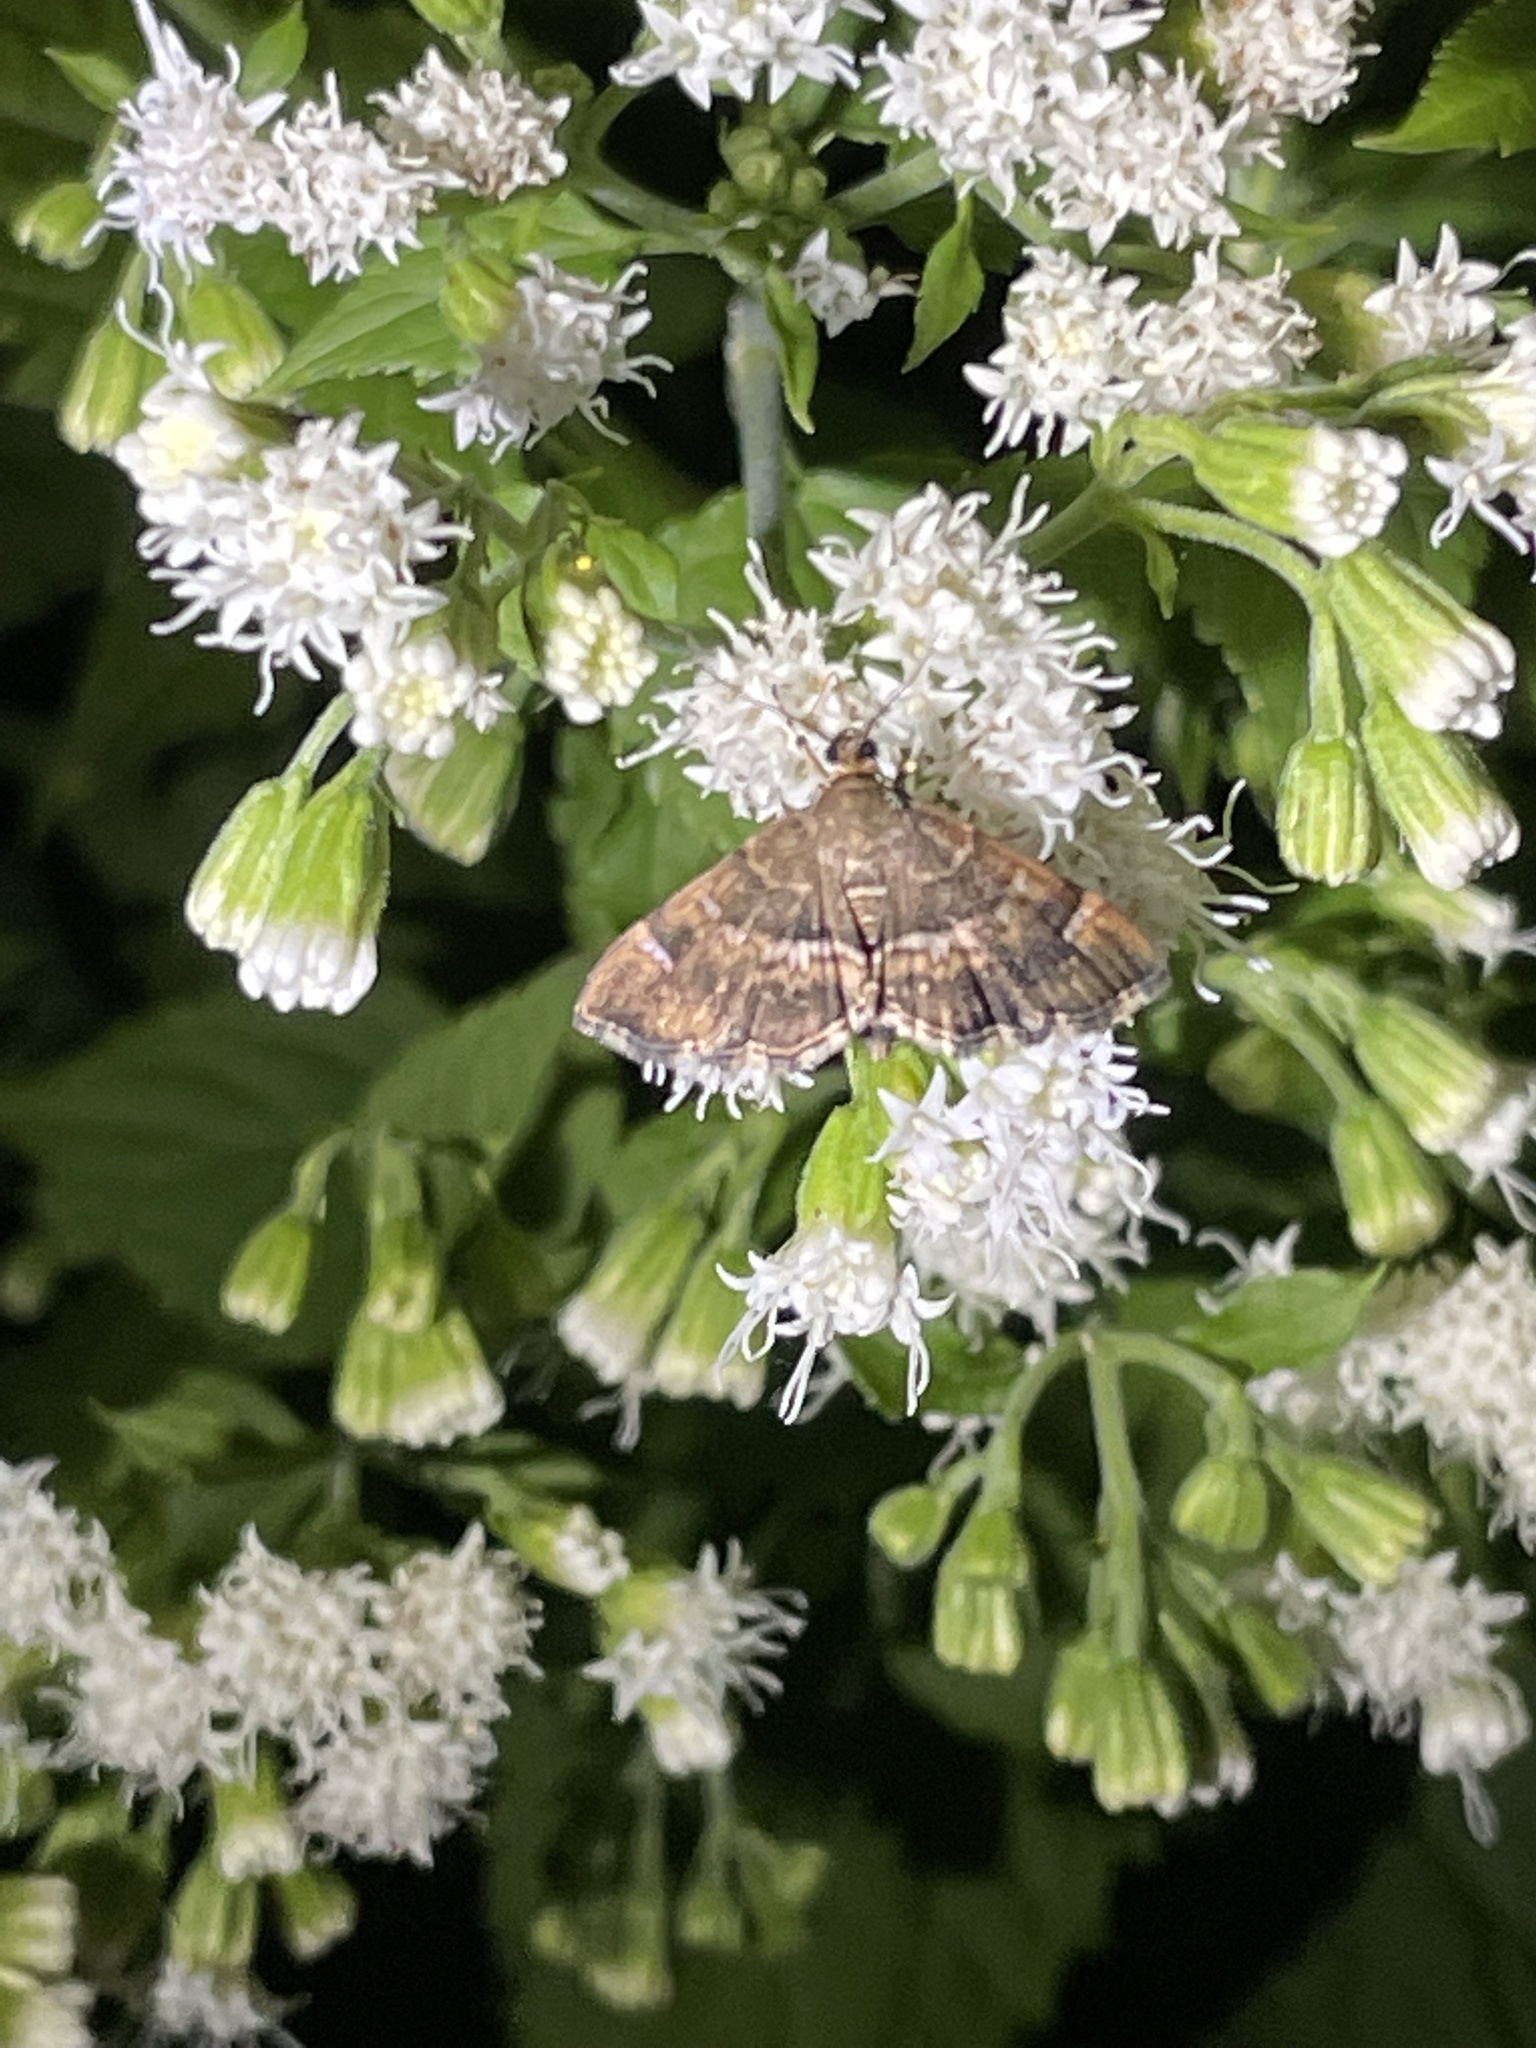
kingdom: Animalia
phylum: Arthropoda
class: Insecta
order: Lepidoptera
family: Crambidae
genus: Hymenia
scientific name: Hymenia perspectalis
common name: Spotted beet webworm
